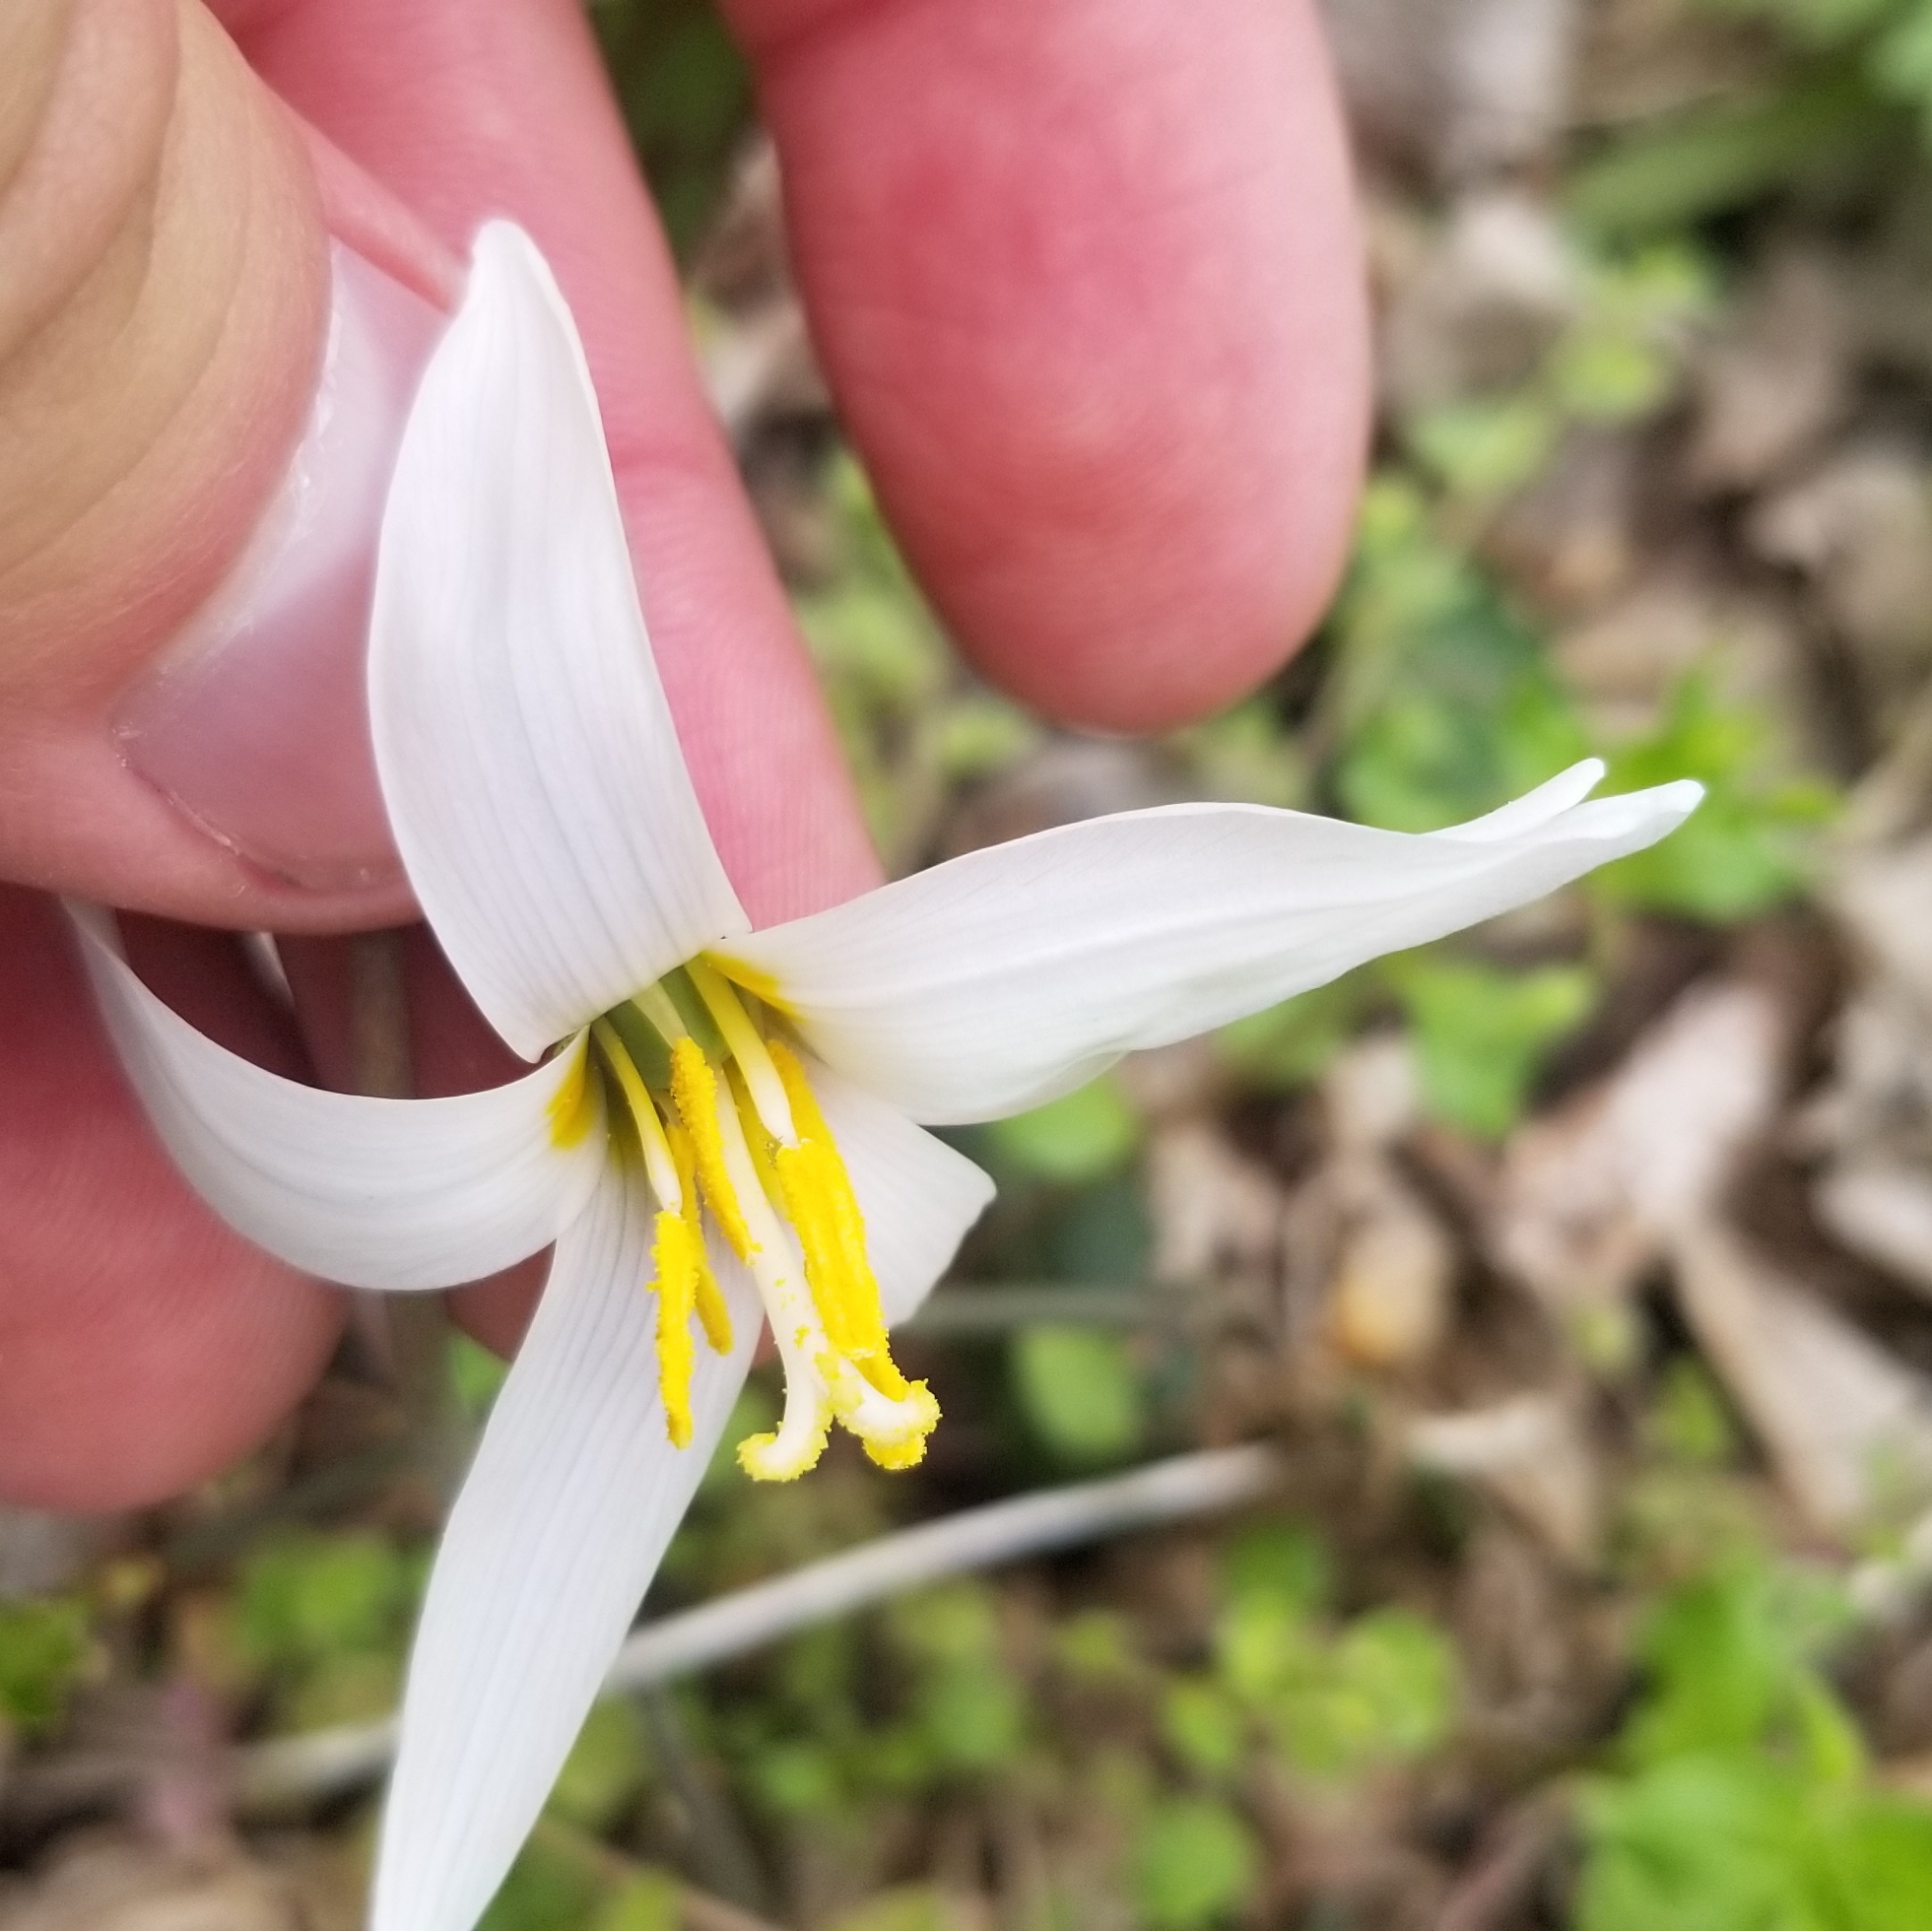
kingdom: Plantae
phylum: Tracheophyta
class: Liliopsida
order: Liliales
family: Liliaceae
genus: Erythronium
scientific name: Erythronium albidum
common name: White trout-lily
